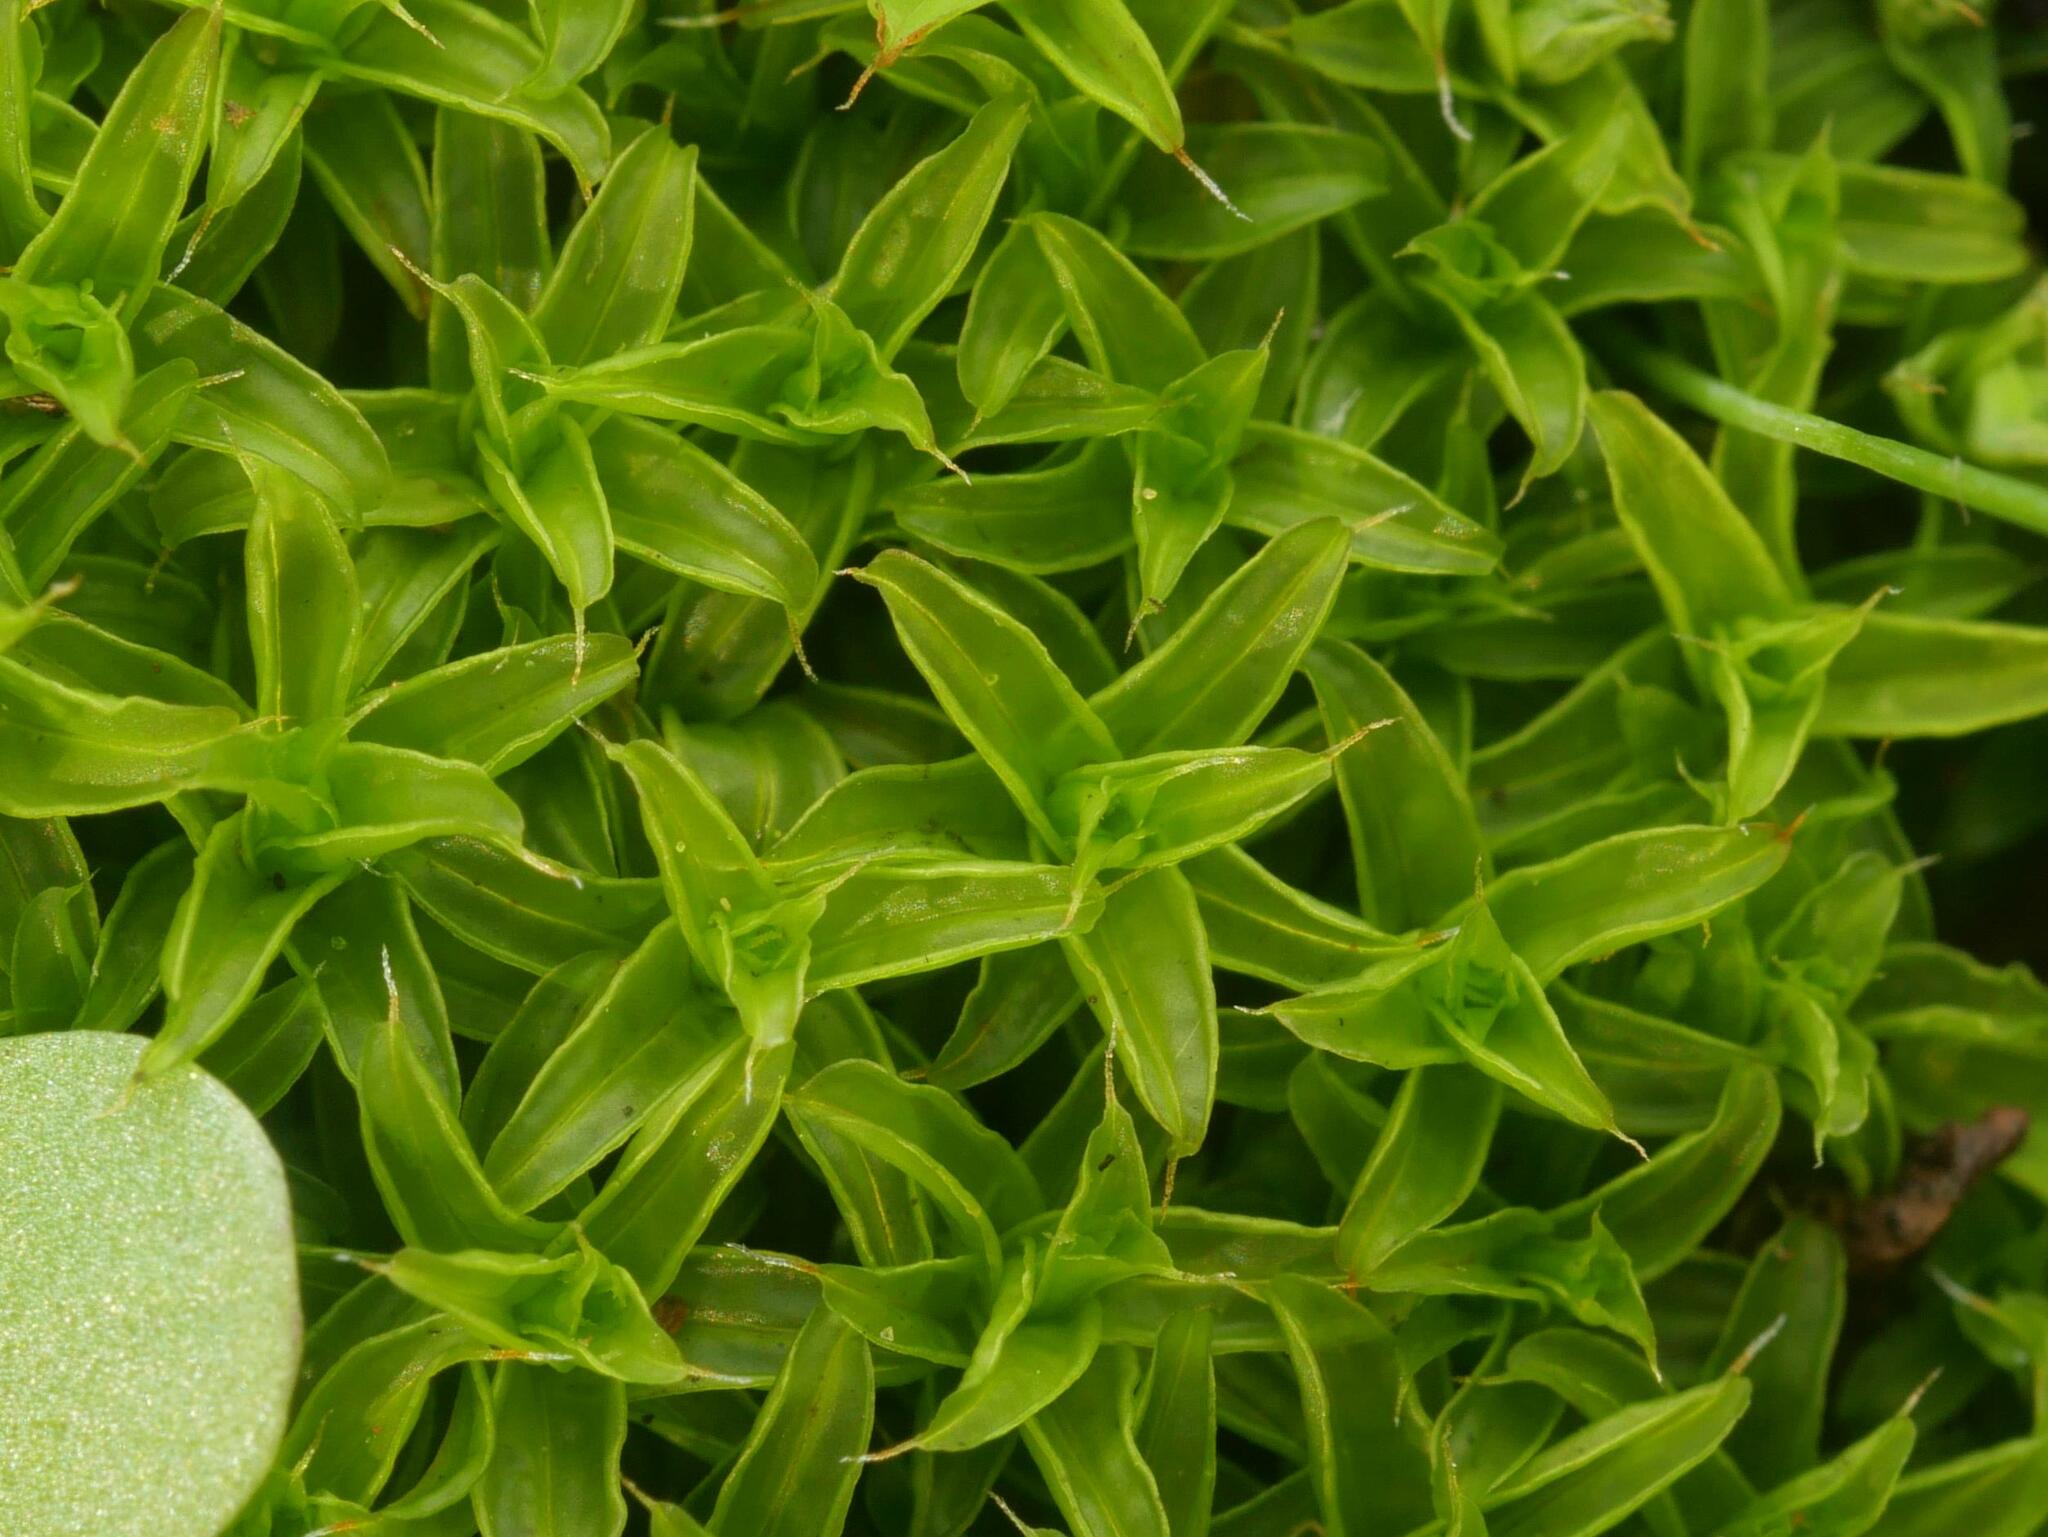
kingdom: Plantae
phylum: Bryophyta
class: Bryopsida
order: Pottiales
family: Pottiaceae
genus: Syntrichia
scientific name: Syntrichia ruralis
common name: Sidewalk screw moss
